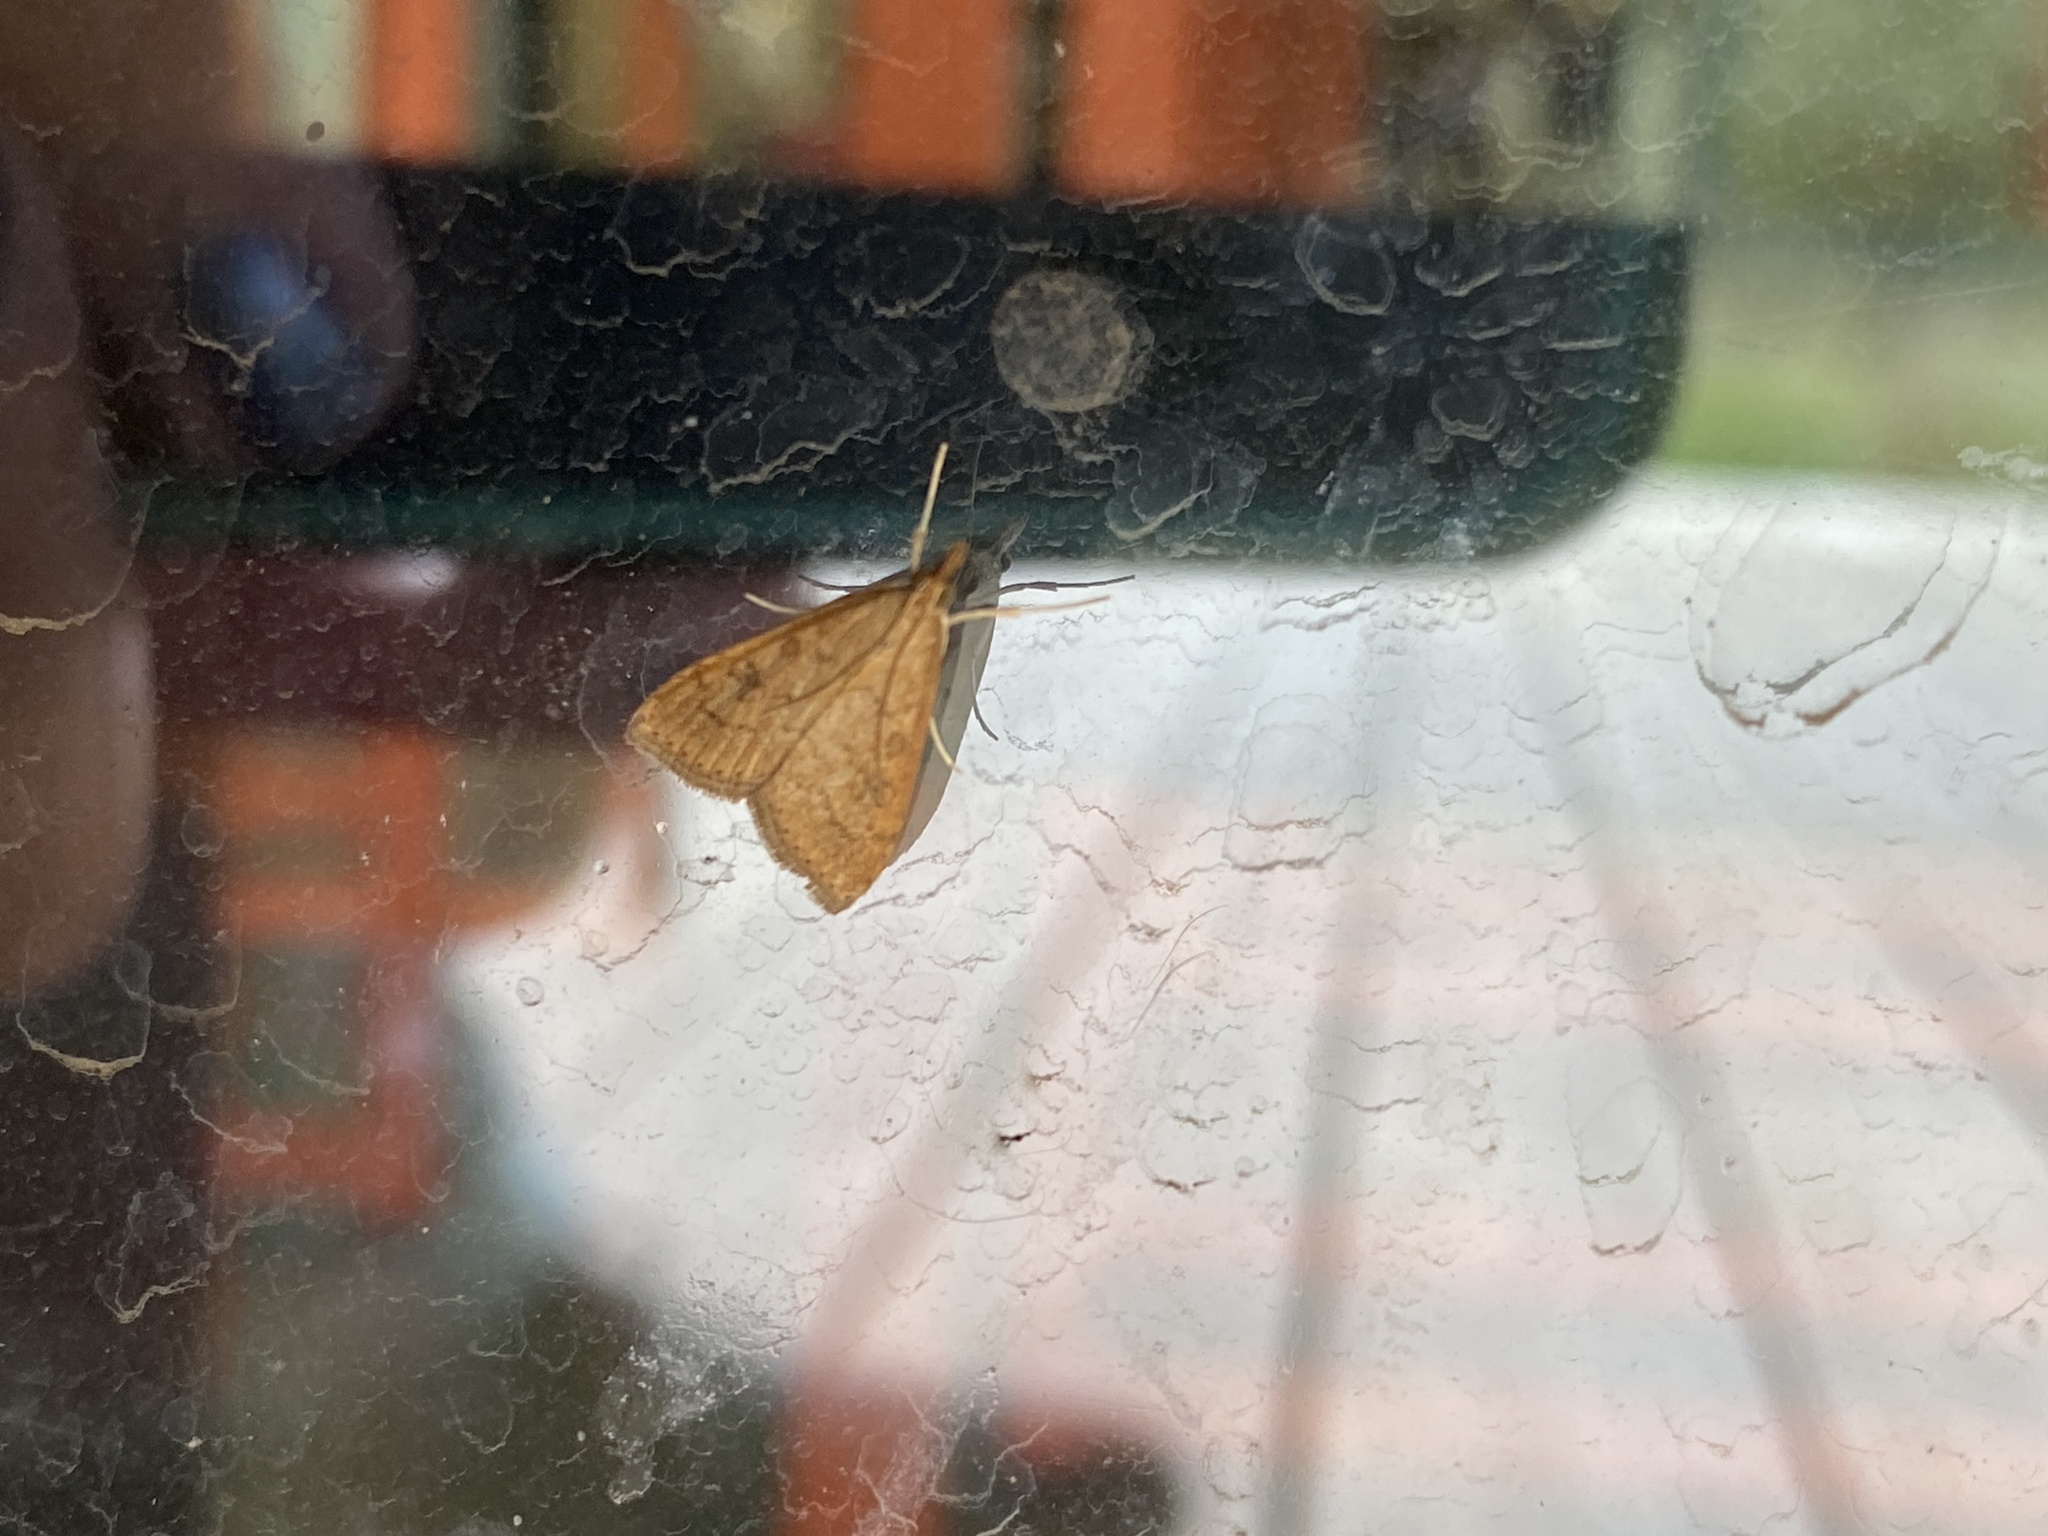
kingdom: Animalia
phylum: Arthropoda
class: Insecta
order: Lepidoptera
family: Crambidae
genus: Udea
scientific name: Udea rubigalis
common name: Celery leaftier moth
